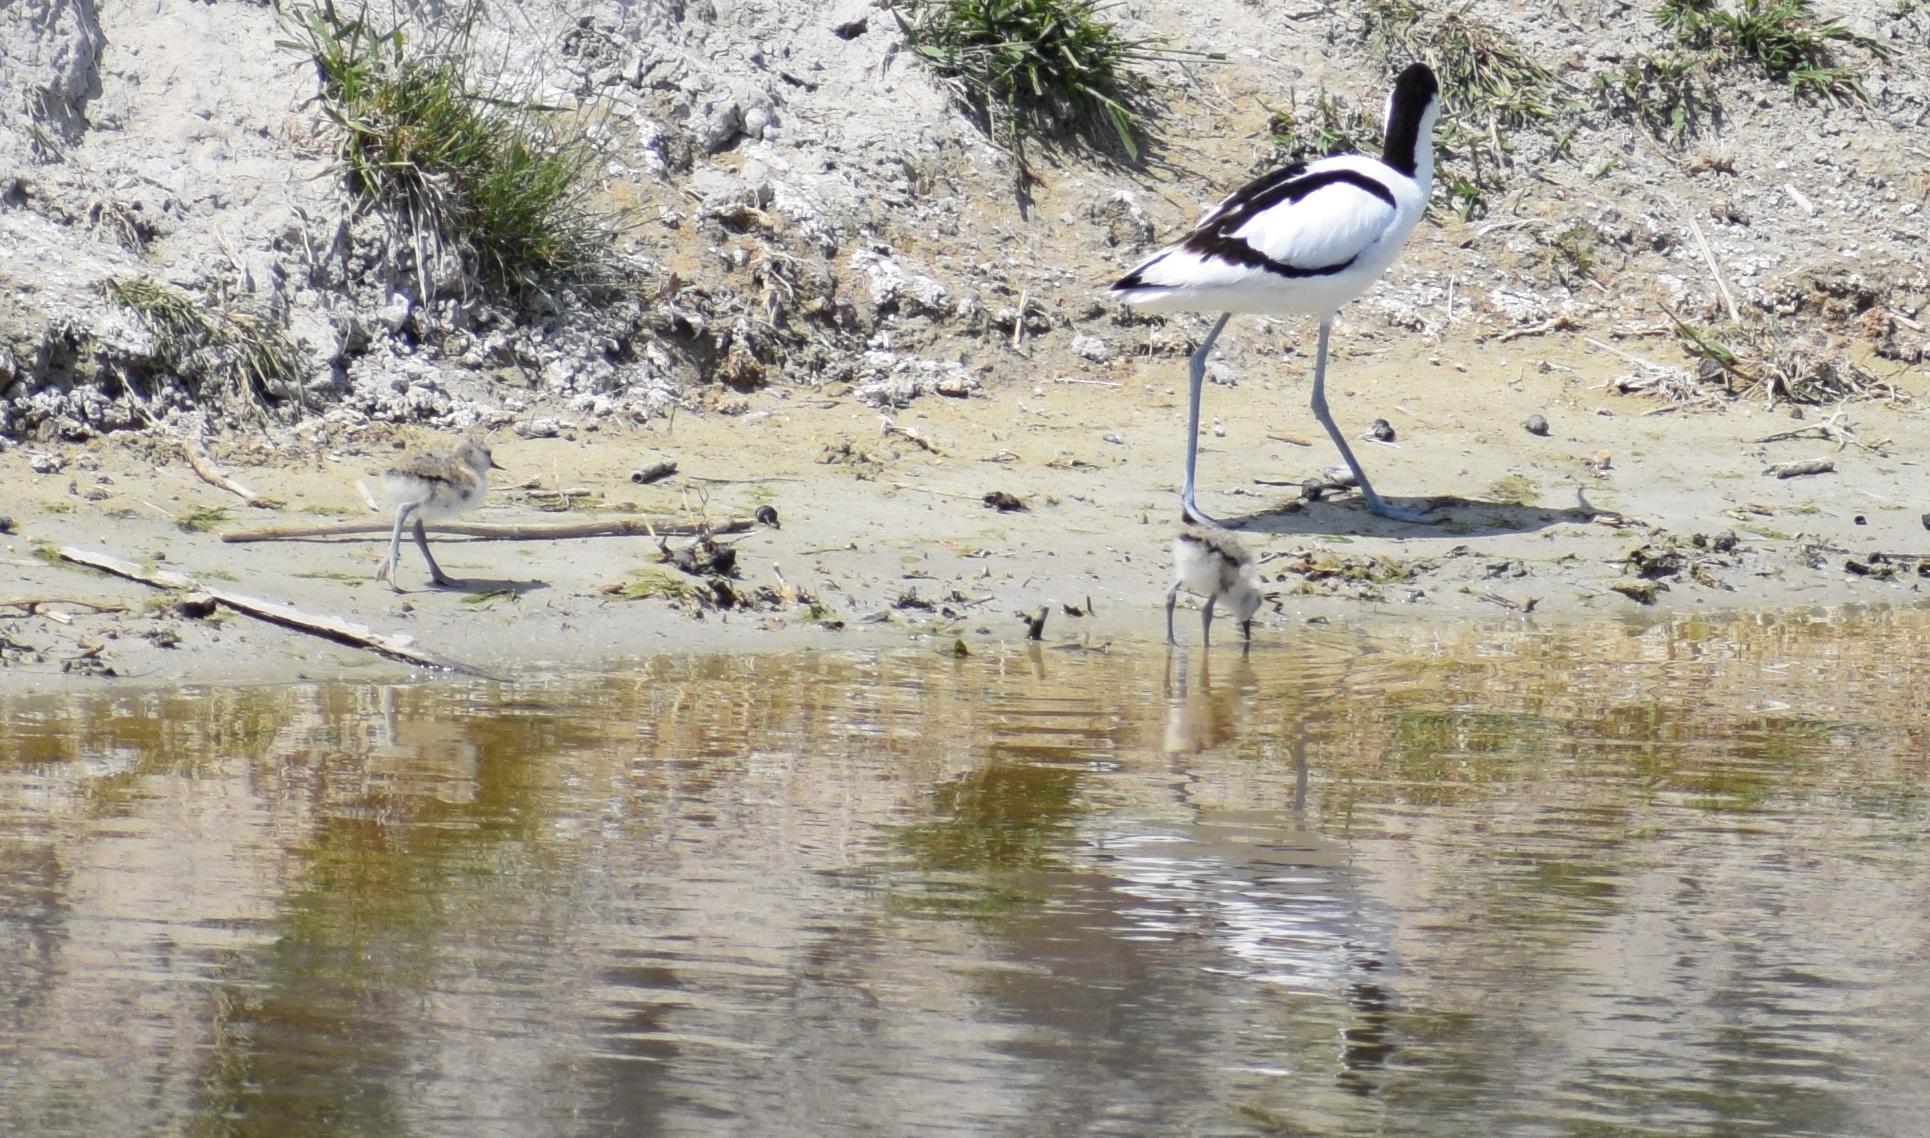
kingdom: Animalia
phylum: Chordata
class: Aves
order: Charadriiformes
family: Recurvirostridae
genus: Recurvirostra
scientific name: Recurvirostra avosetta
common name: Pied avocet
